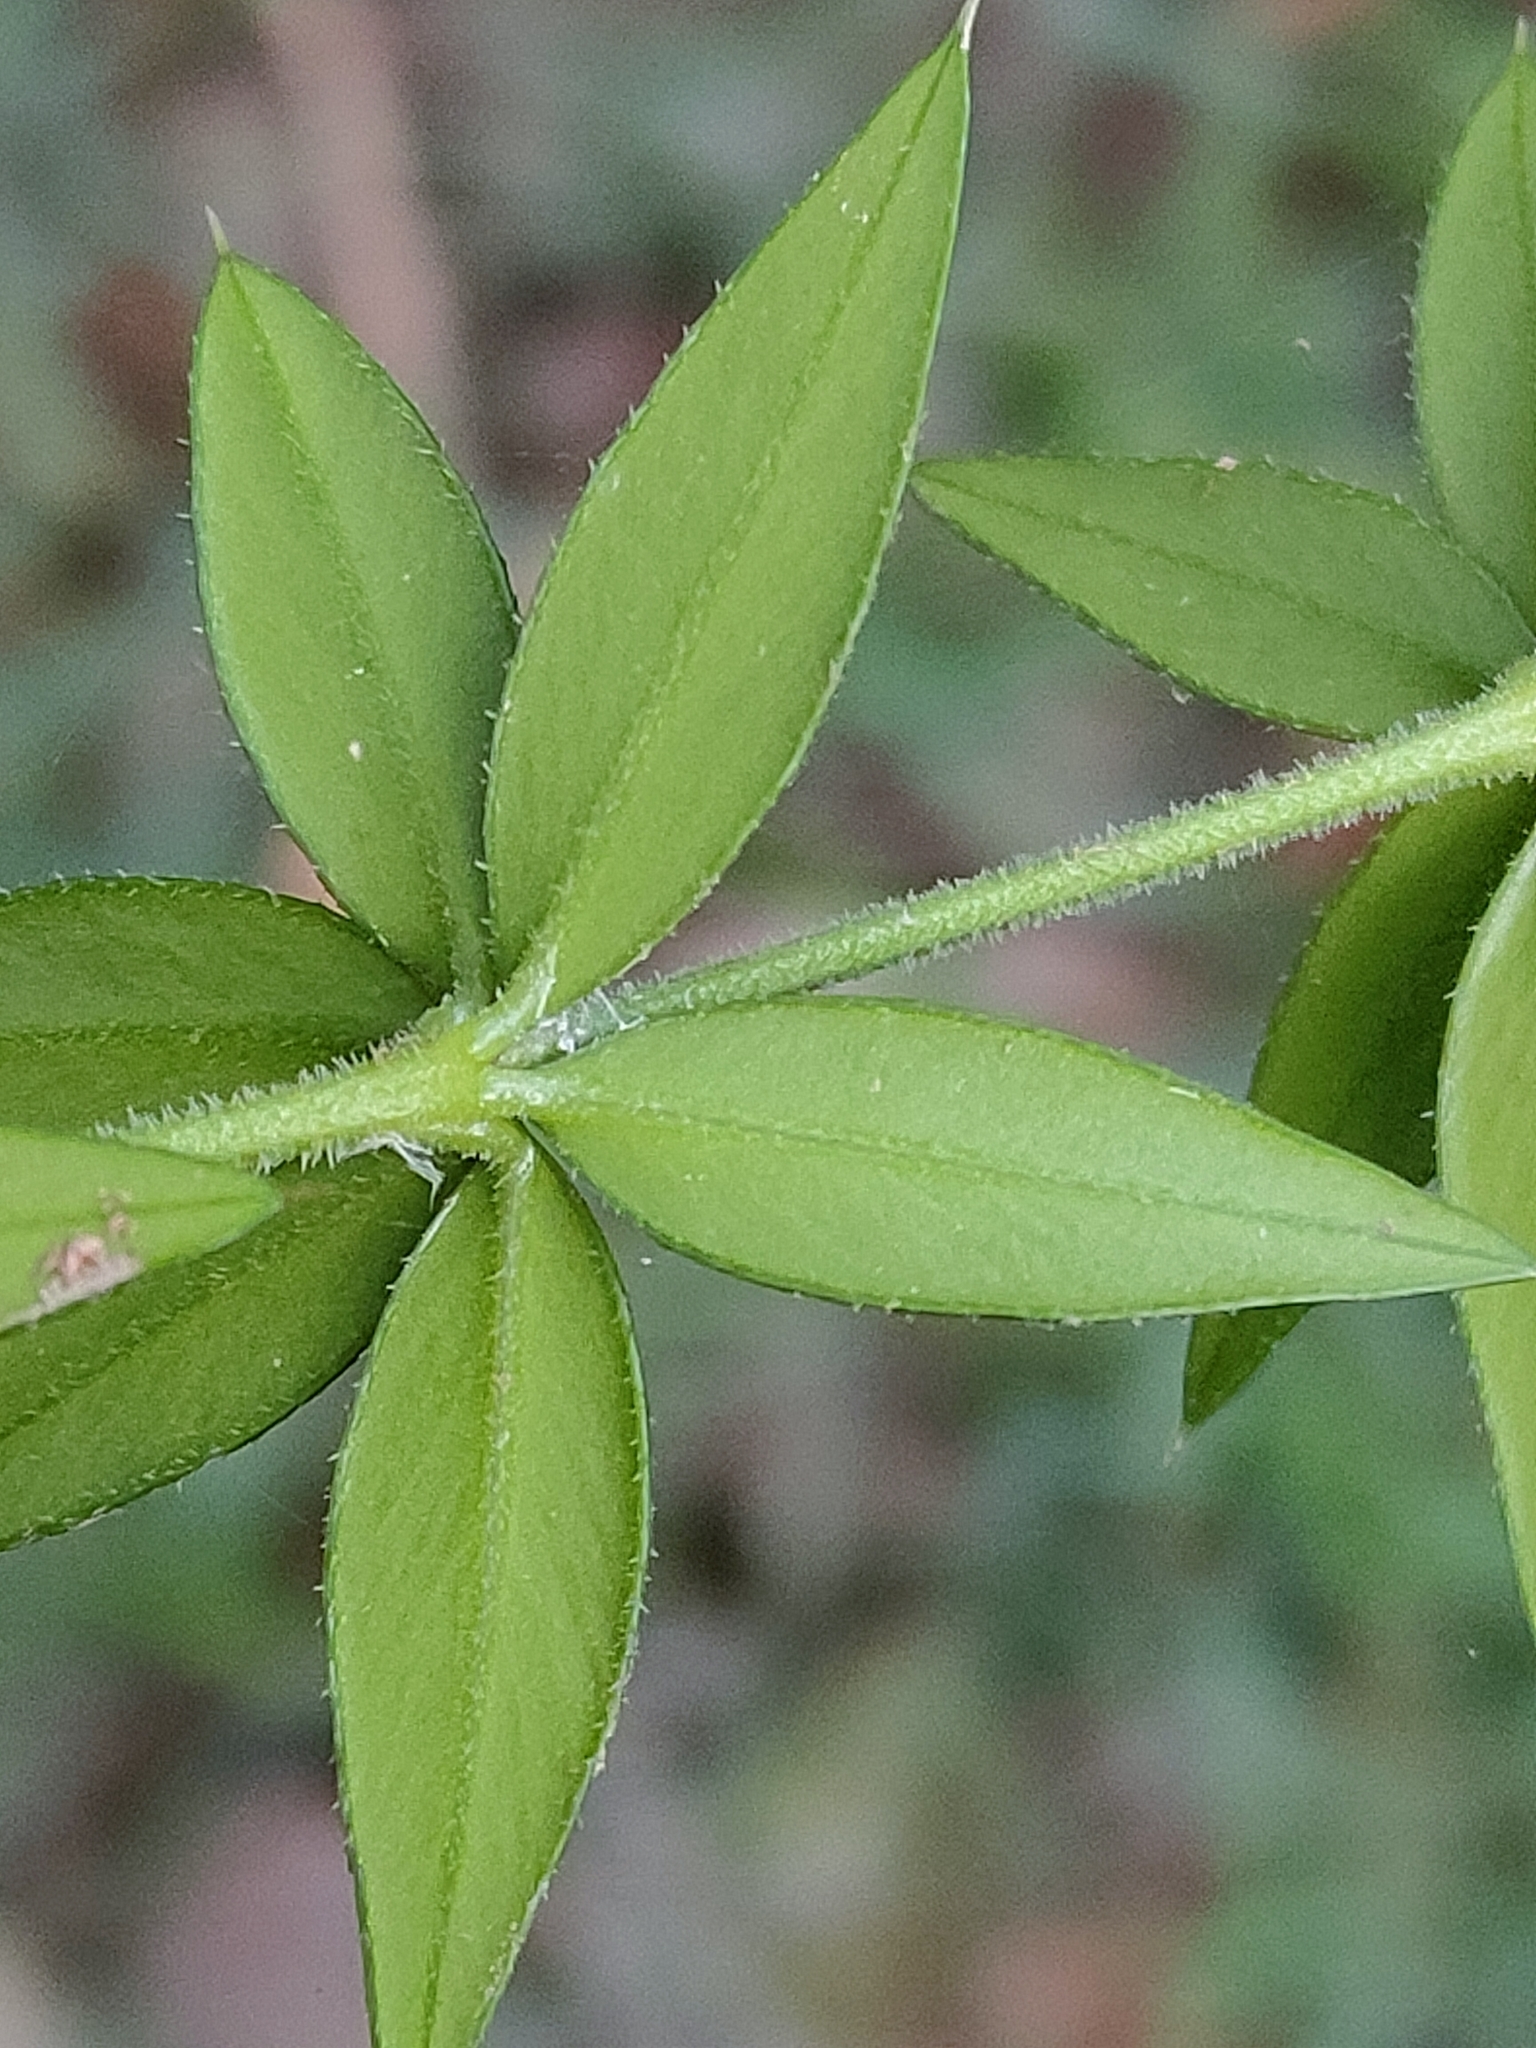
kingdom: Plantae
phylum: Tracheophyta
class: Magnoliopsida
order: Gentianales
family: Apocynaceae
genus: Alyxia
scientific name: Alyxia ruscifolia
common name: Chainfruit
